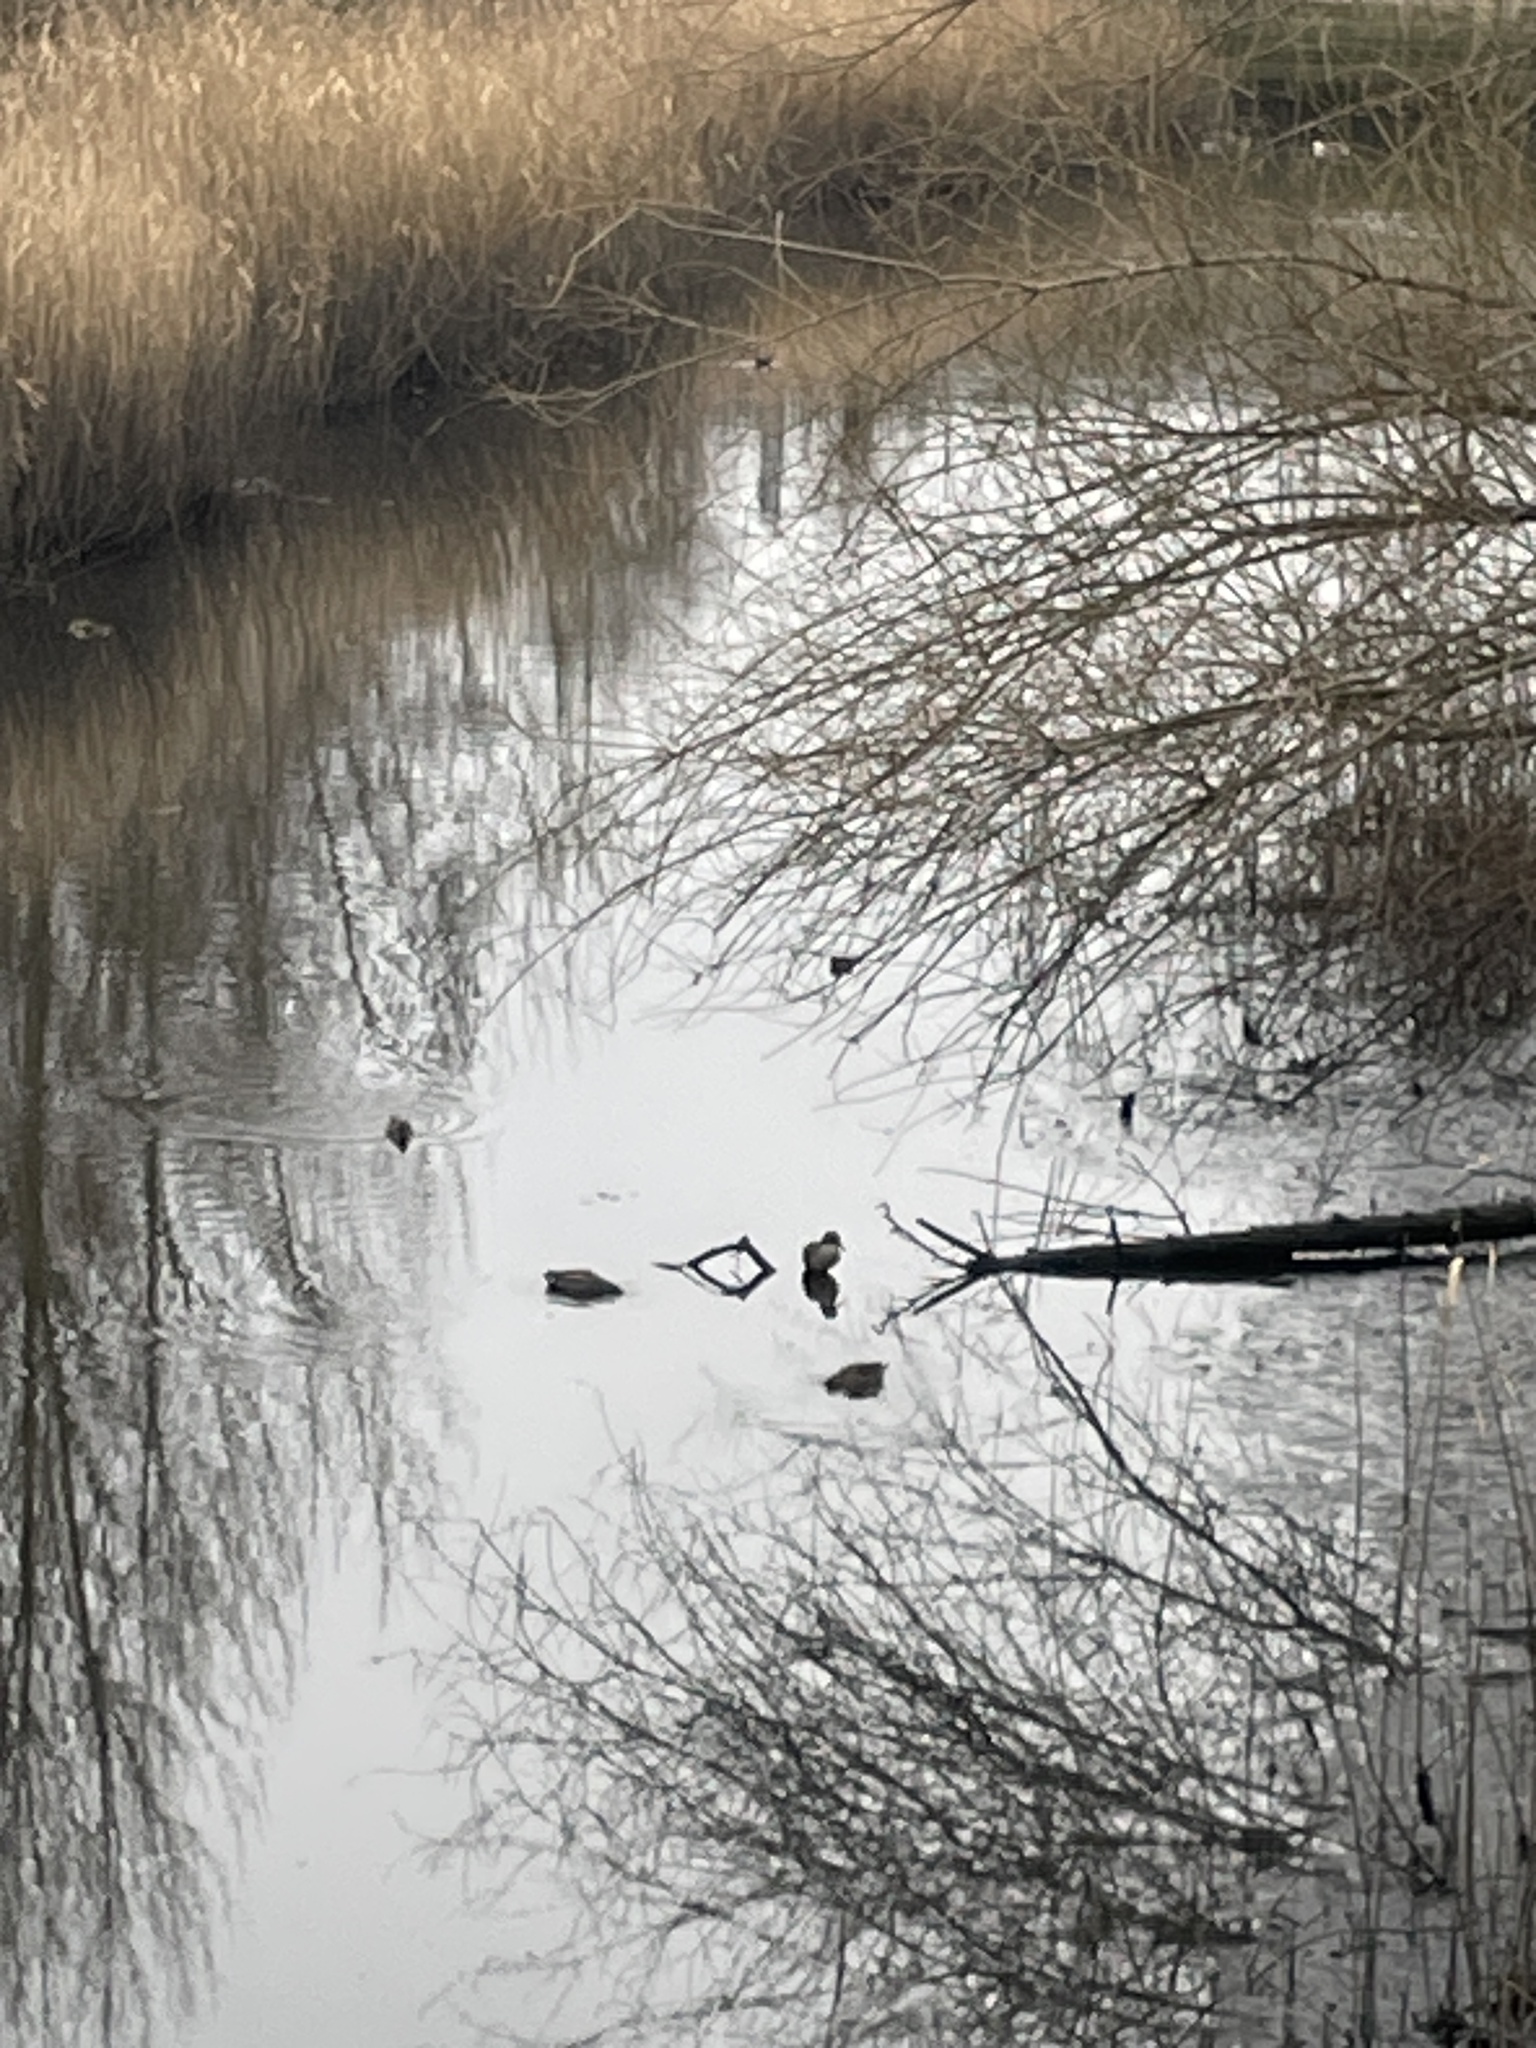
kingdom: Animalia
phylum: Chordata
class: Aves
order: Anseriformes
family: Anatidae
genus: Anas
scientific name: Anas crecca
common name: Eurasian teal
